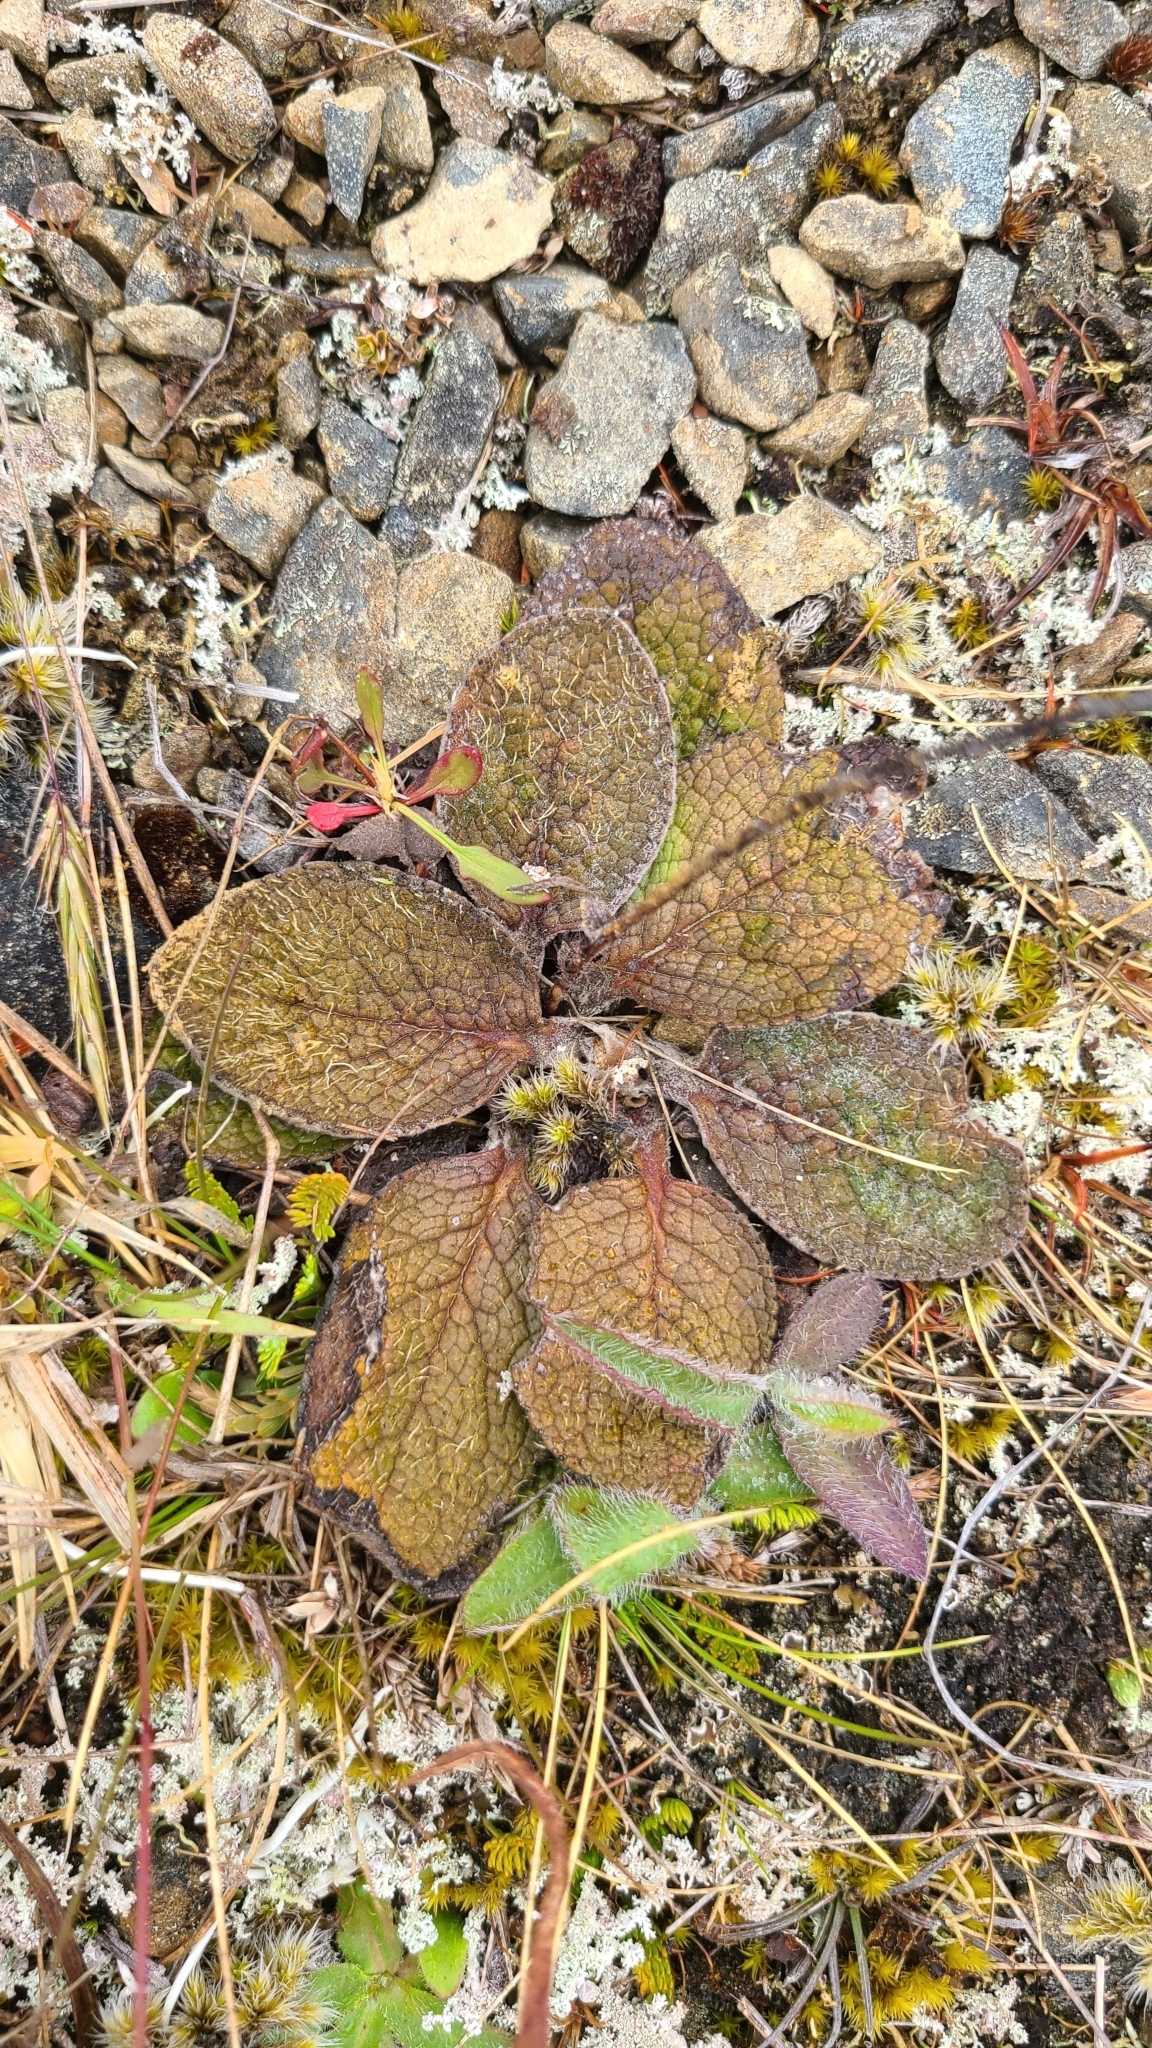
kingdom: Plantae
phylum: Tracheophyta
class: Magnoliopsida
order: Asterales
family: Asteraceae
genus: Brachyglottis
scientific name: Brachyglottis lagopus
